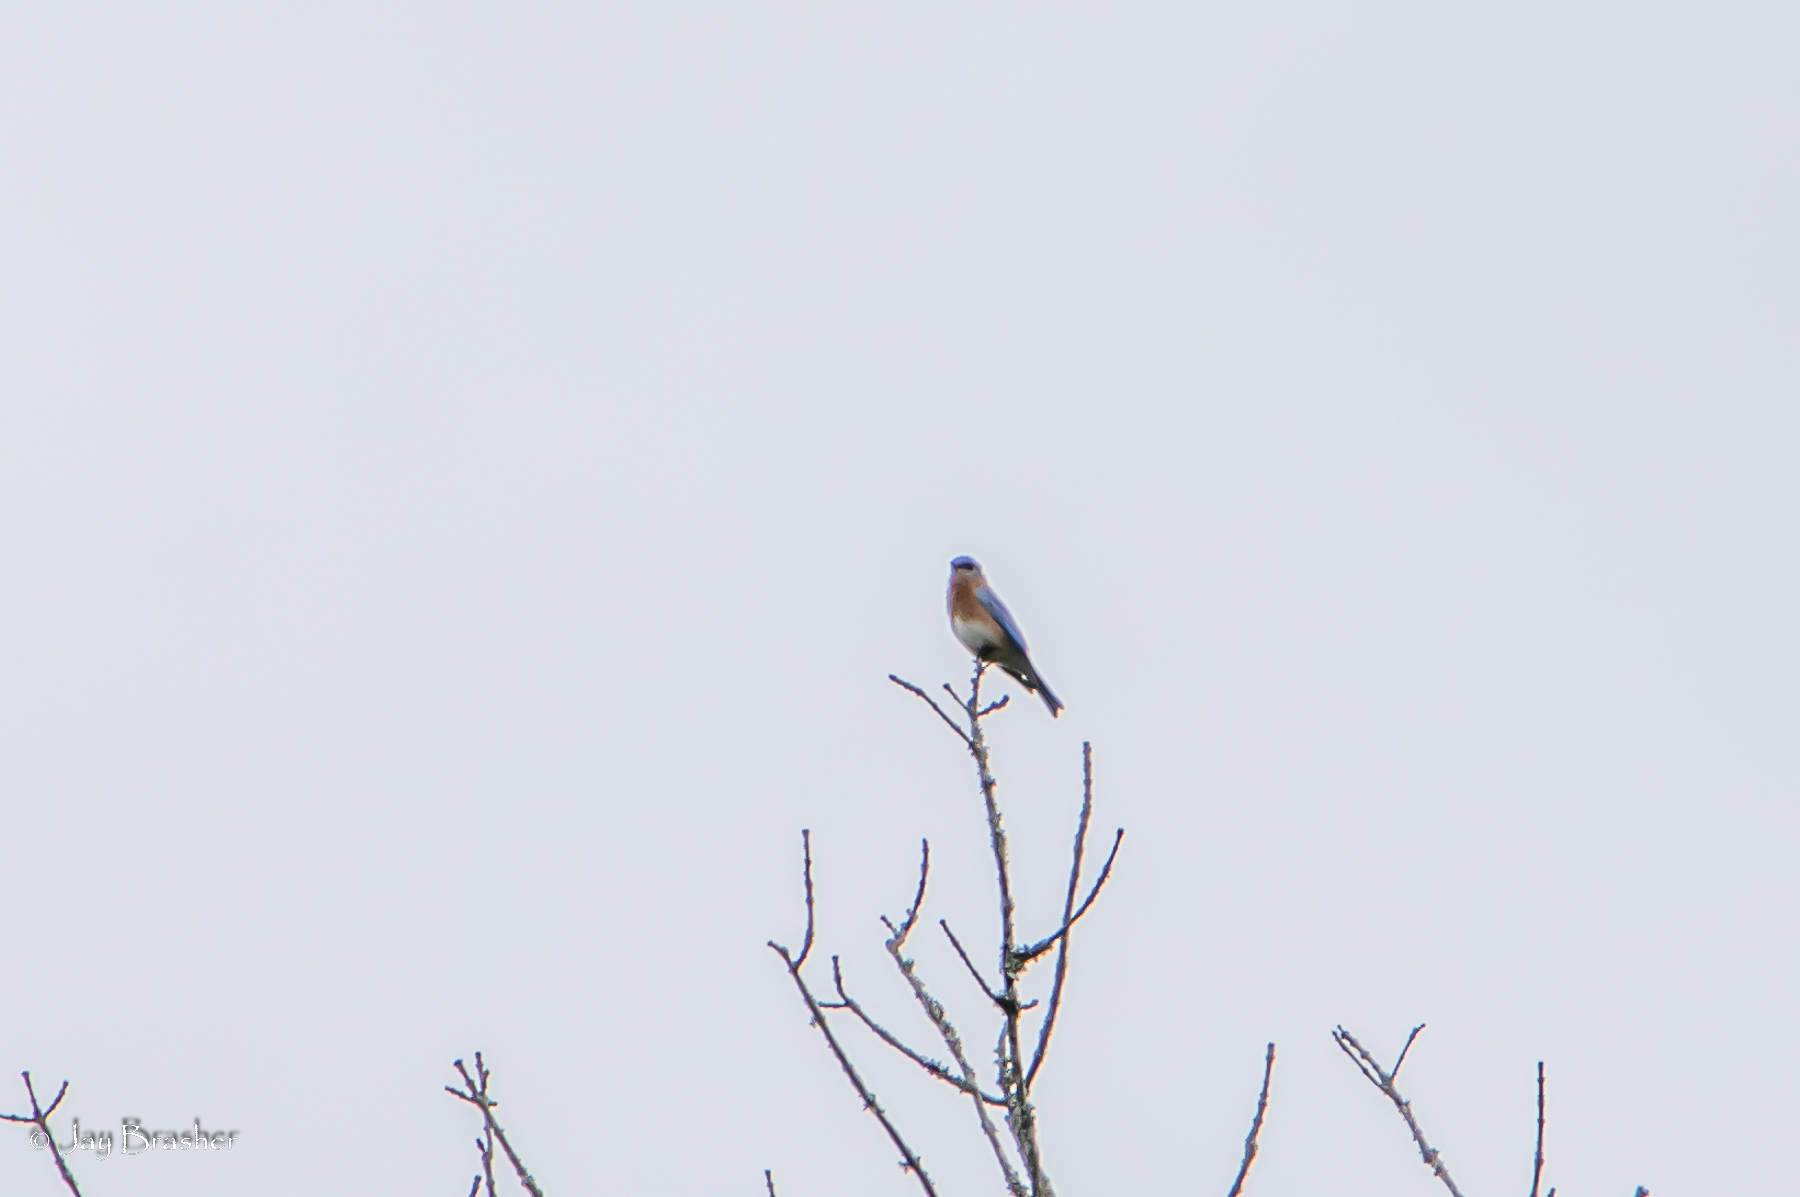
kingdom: Animalia
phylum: Chordata
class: Aves
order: Passeriformes
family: Turdidae
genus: Sialia
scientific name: Sialia sialis
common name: Eastern bluebird
